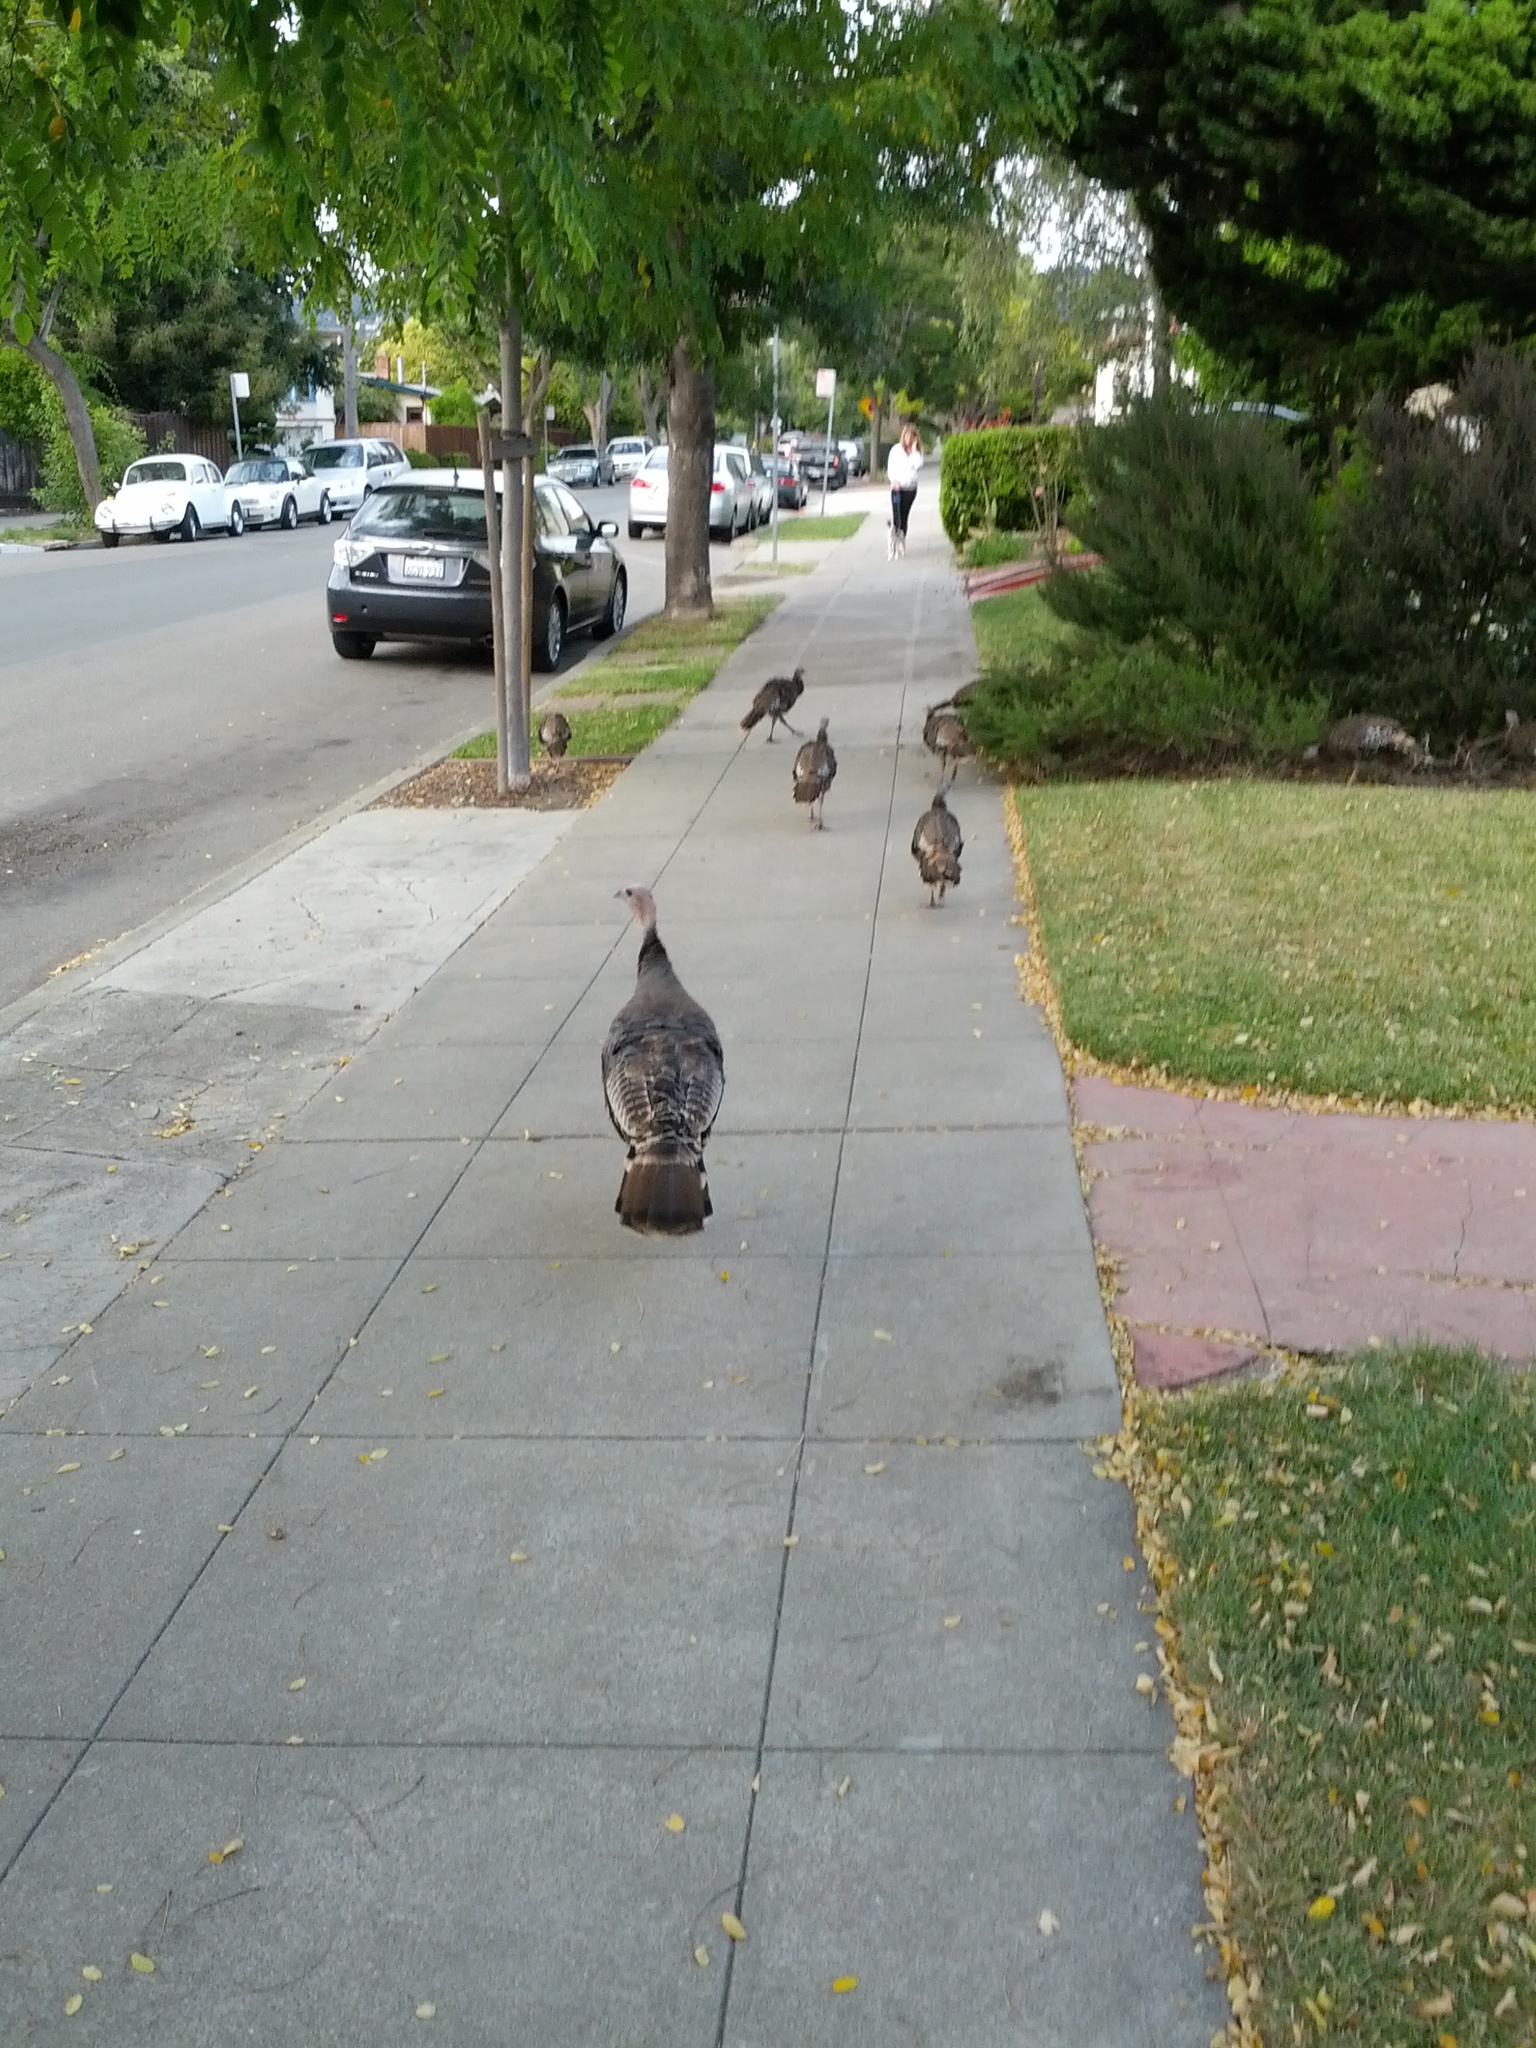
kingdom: Animalia
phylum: Chordata
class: Aves
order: Galliformes
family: Phasianidae
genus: Meleagris
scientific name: Meleagris gallopavo
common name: Wild turkey
